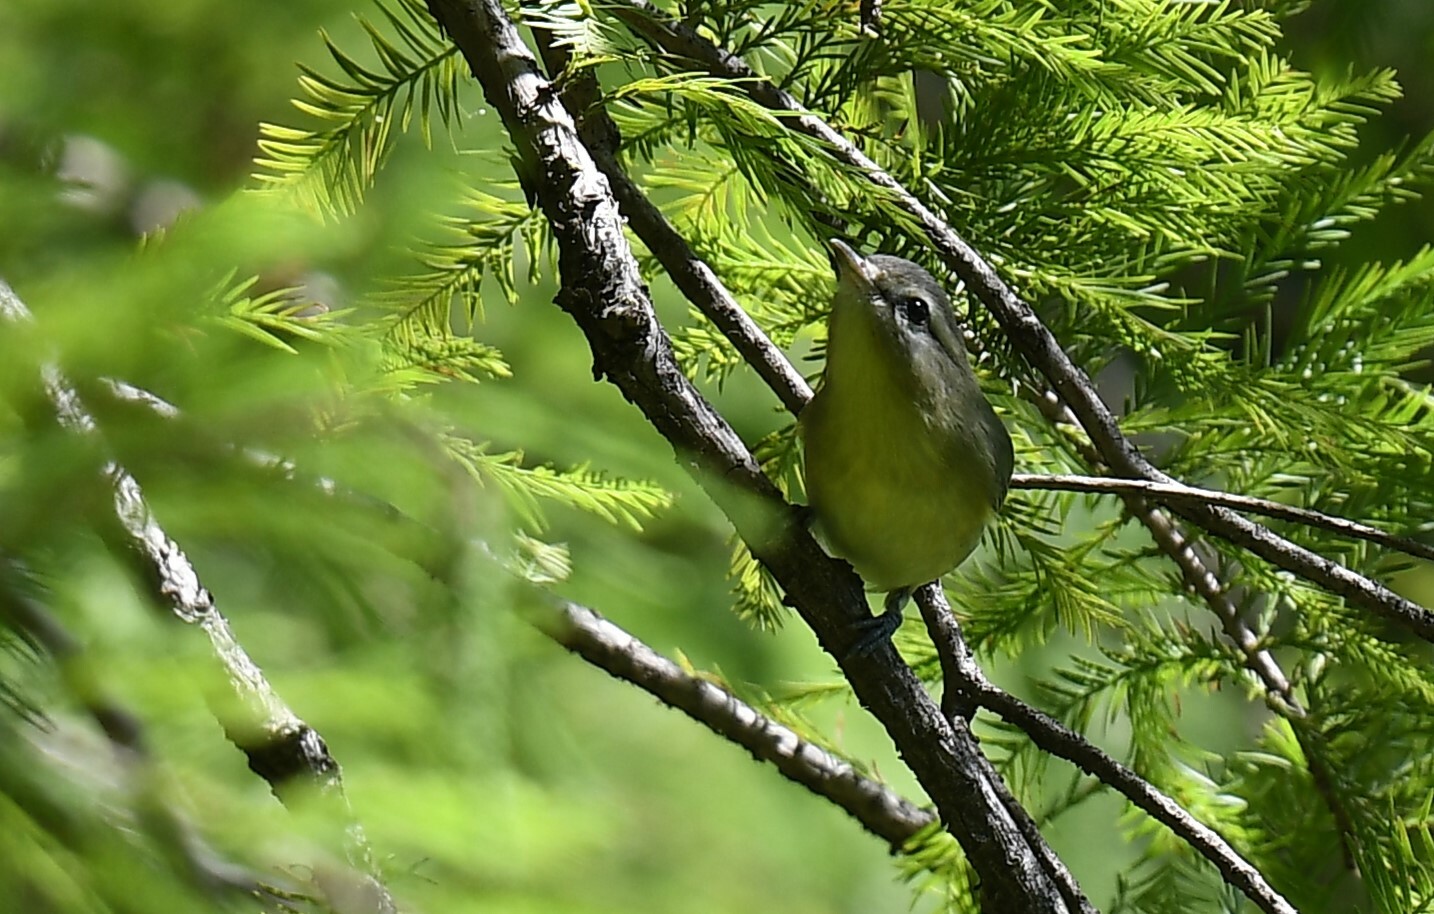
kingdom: Animalia
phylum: Chordata
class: Aves
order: Passeriformes
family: Vireonidae
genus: Vireo
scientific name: Vireo philadelphicus
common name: Philadelphia vireo
